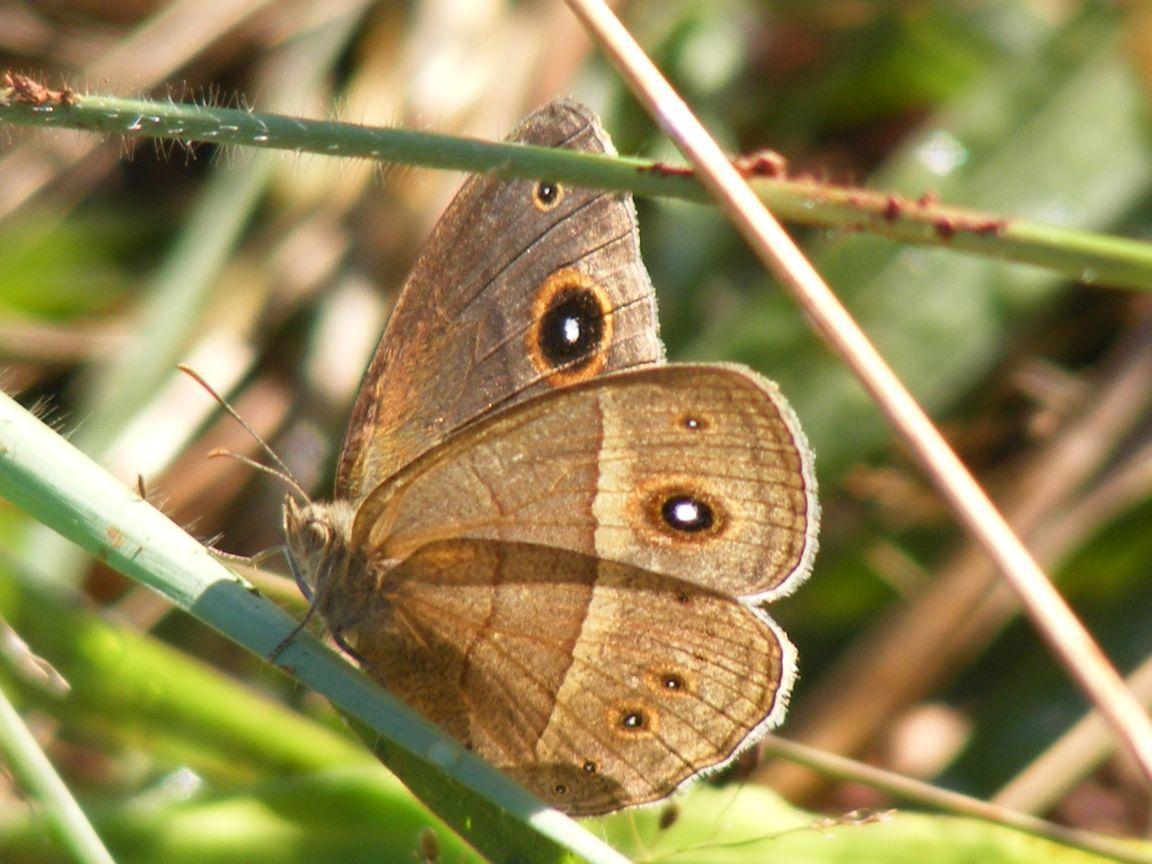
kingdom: Animalia
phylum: Arthropoda
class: Insecta
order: Lepidoptera
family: Nymphalidae
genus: Heteropsis
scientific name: Heteropsis perspicua
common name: Eyed bush brown
